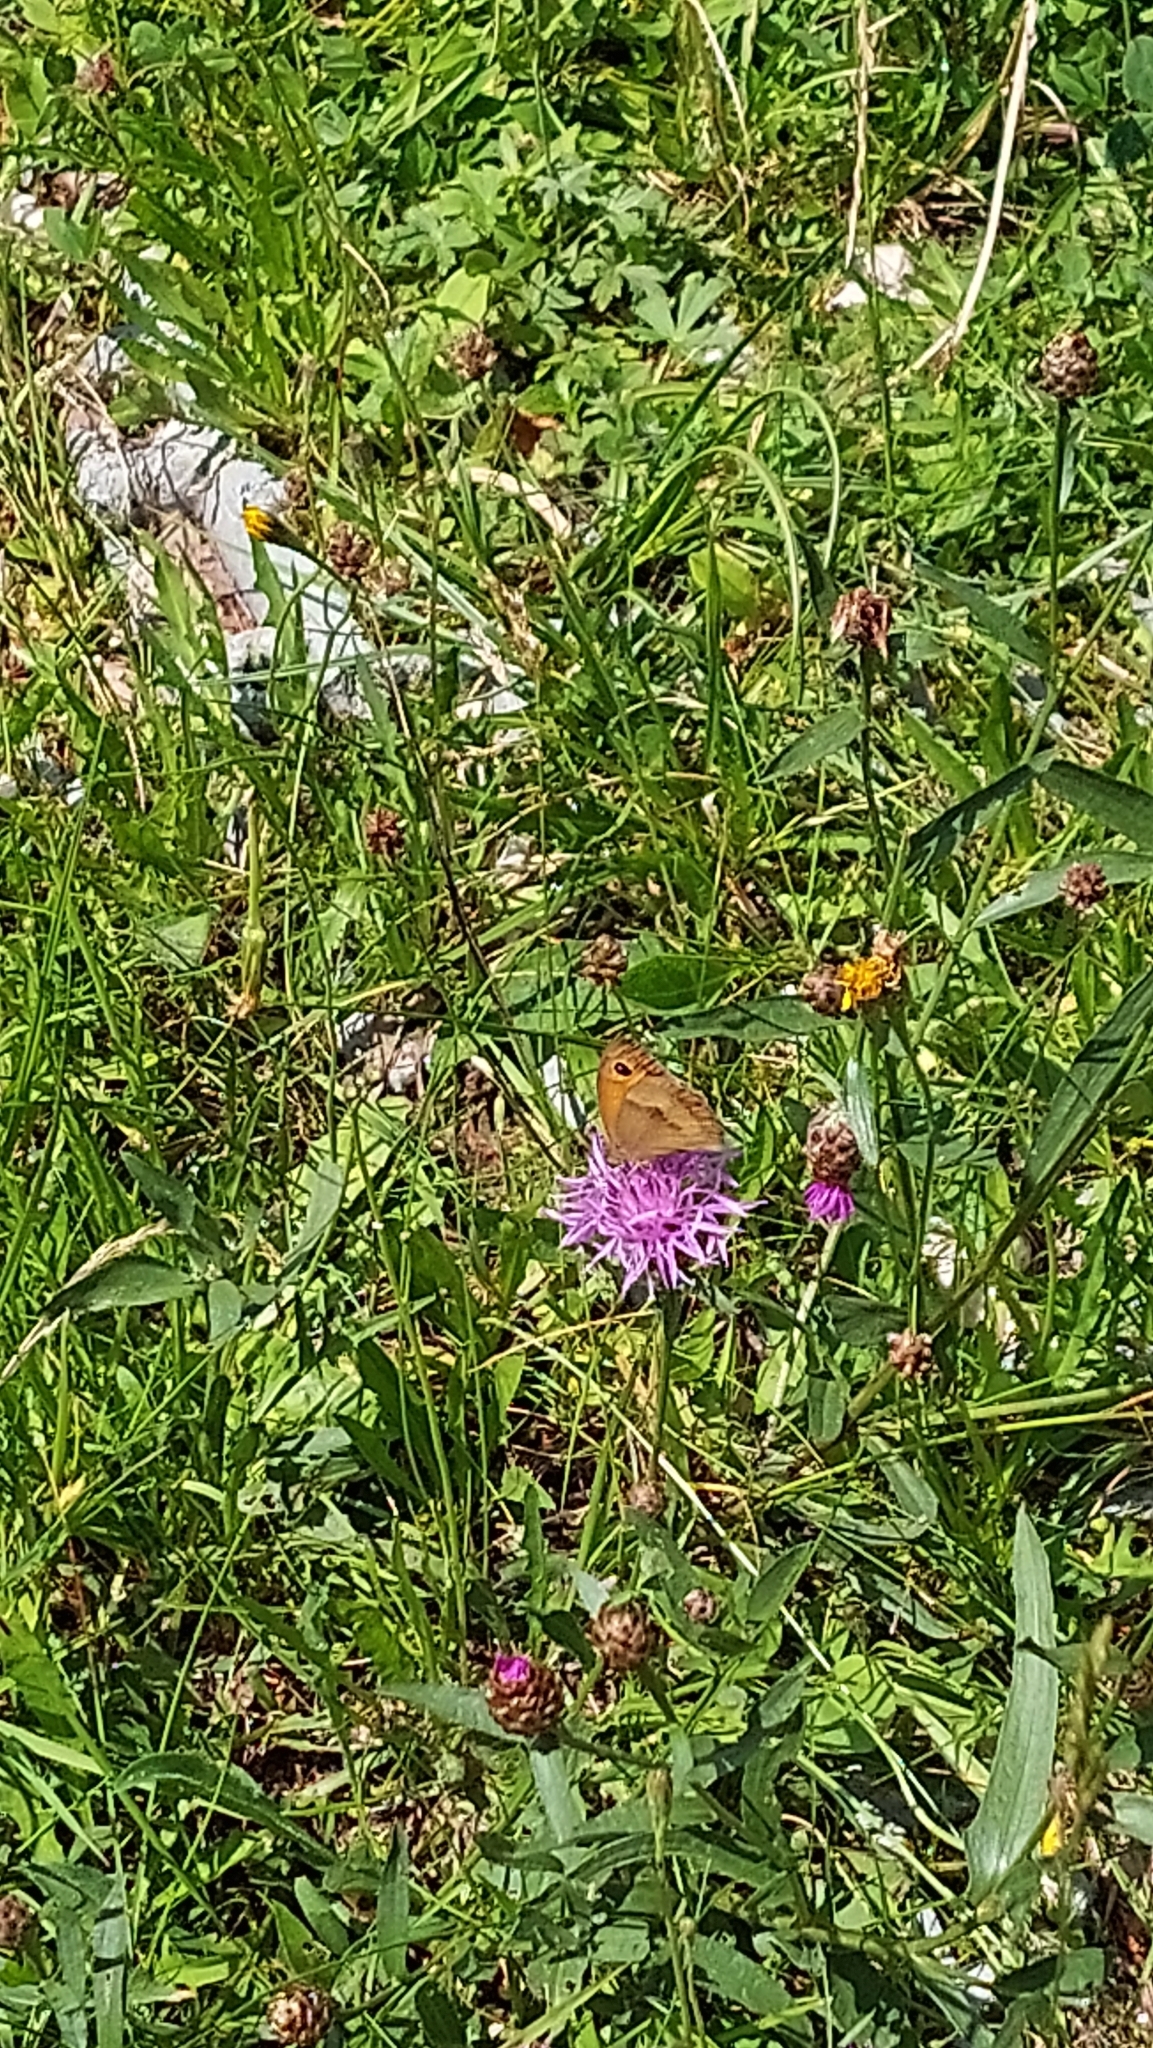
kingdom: Animalia
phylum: Arthropoda
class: Insecta
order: Lepidoptera
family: Nymphalidae
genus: Maniola
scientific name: Maniola jurtina
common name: Meadow brown
